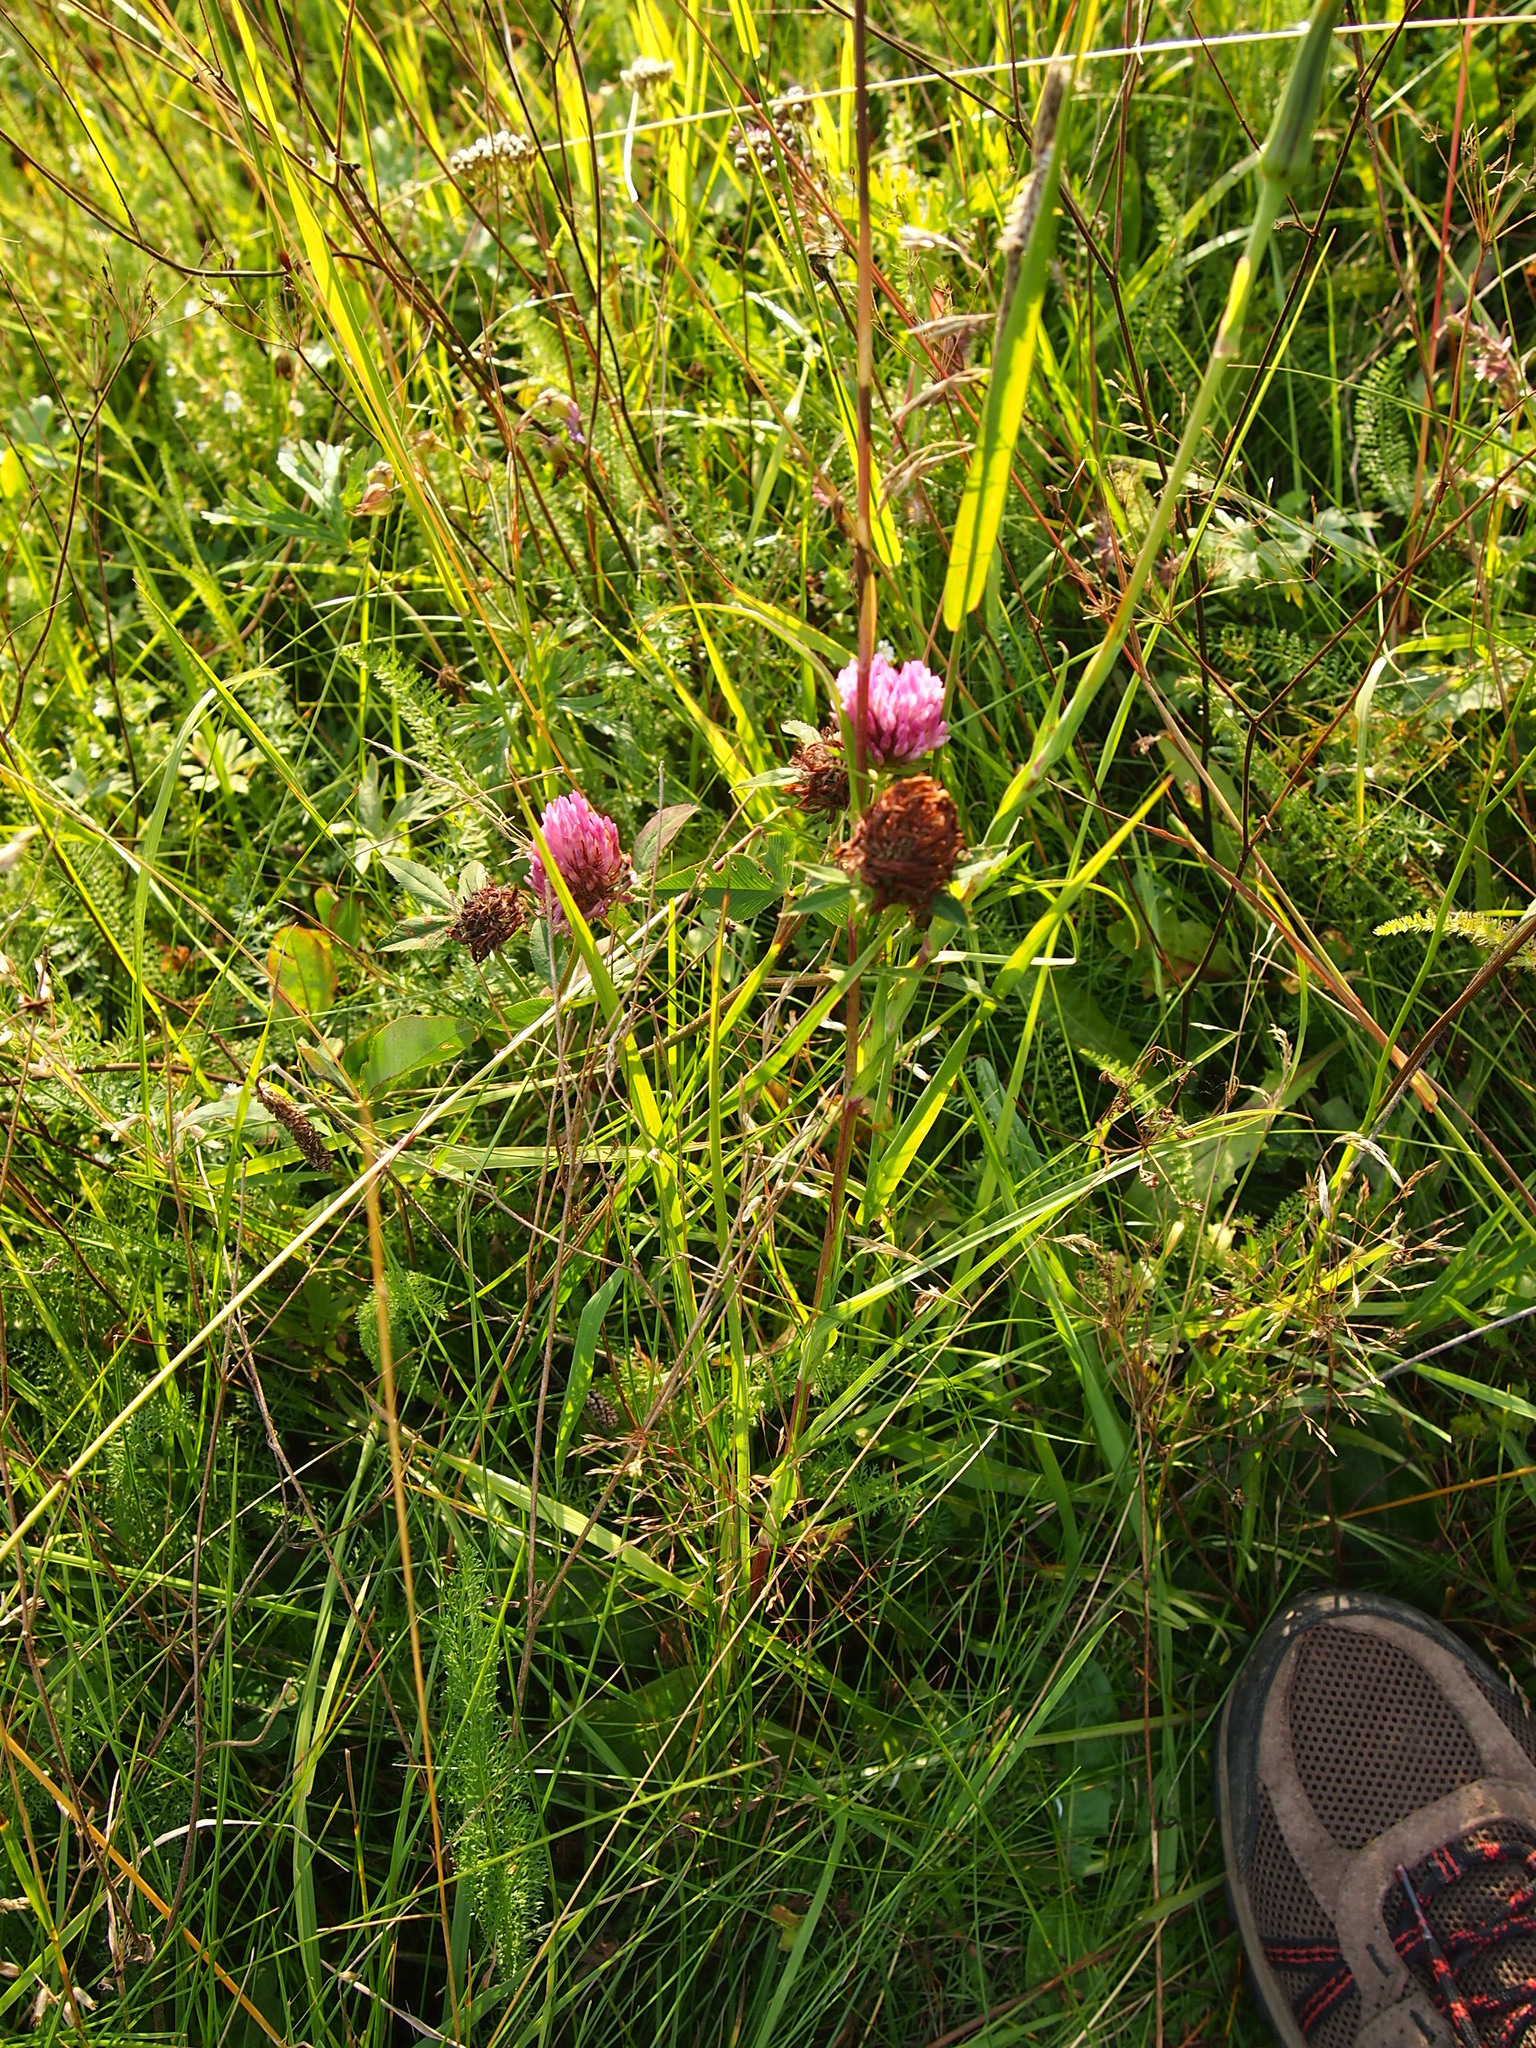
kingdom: Plantae
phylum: Tracheophyta
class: Magnoliopsida
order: Fabales
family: Fabaceae
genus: Trifolium
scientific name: Trifolium medium
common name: Zigzag clover
